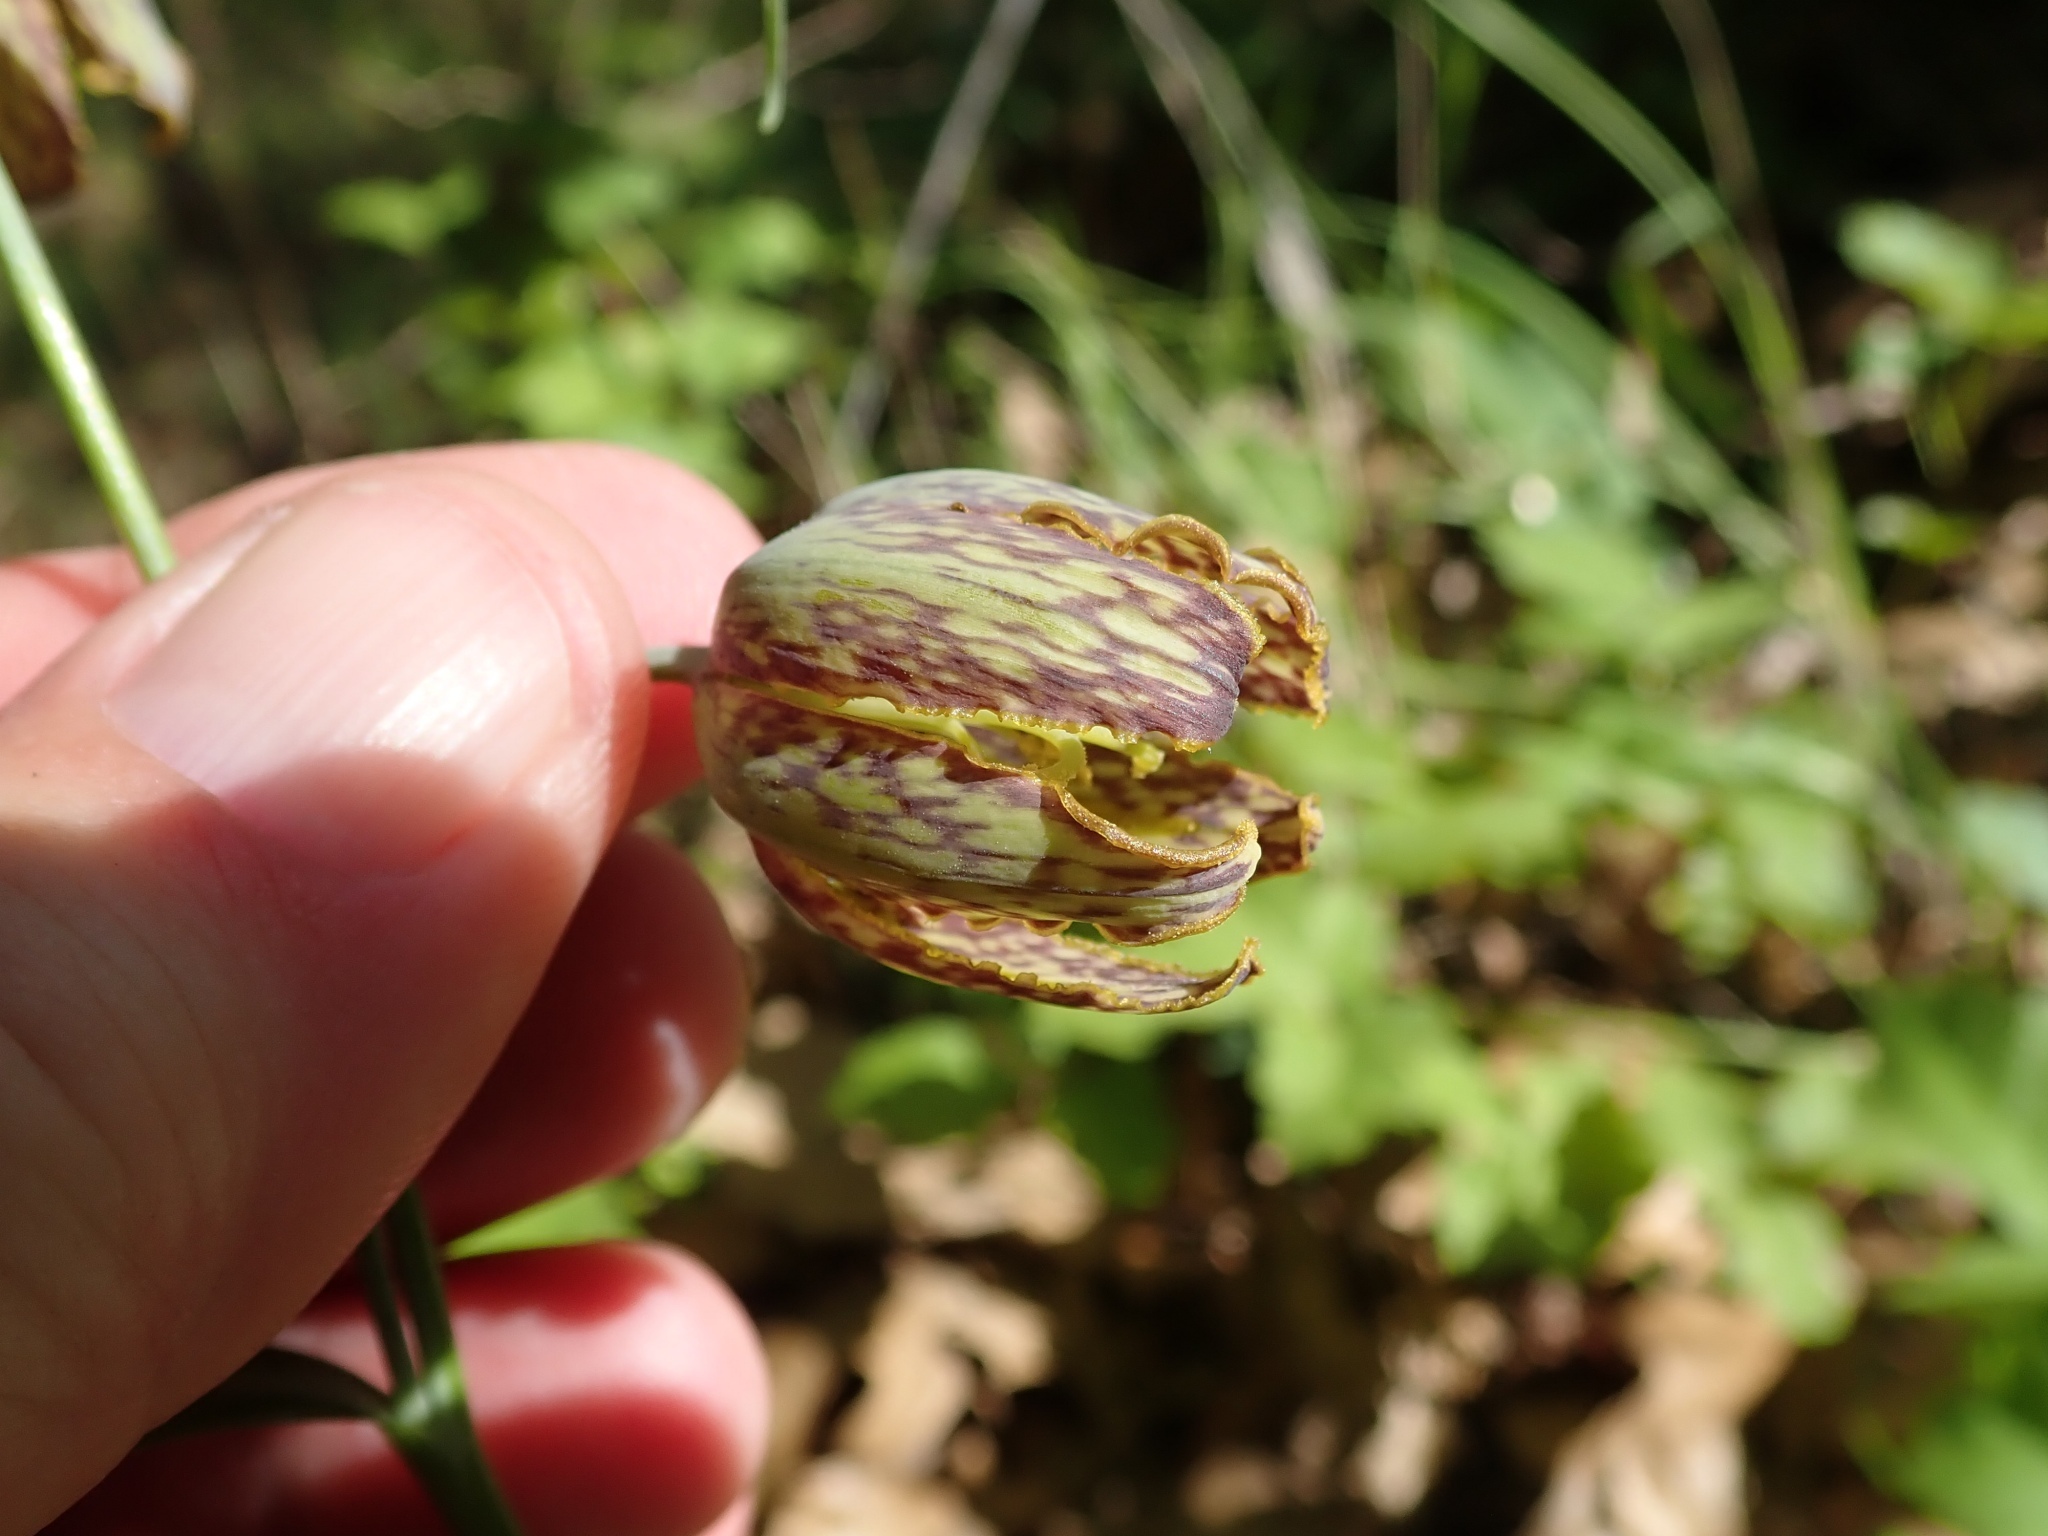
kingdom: Plantae
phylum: Tracheophyta
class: Liliopsida
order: Liliales
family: Liliaceae
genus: Fritillaria
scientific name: Fritillaria affinis
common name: Ojai fritillary
